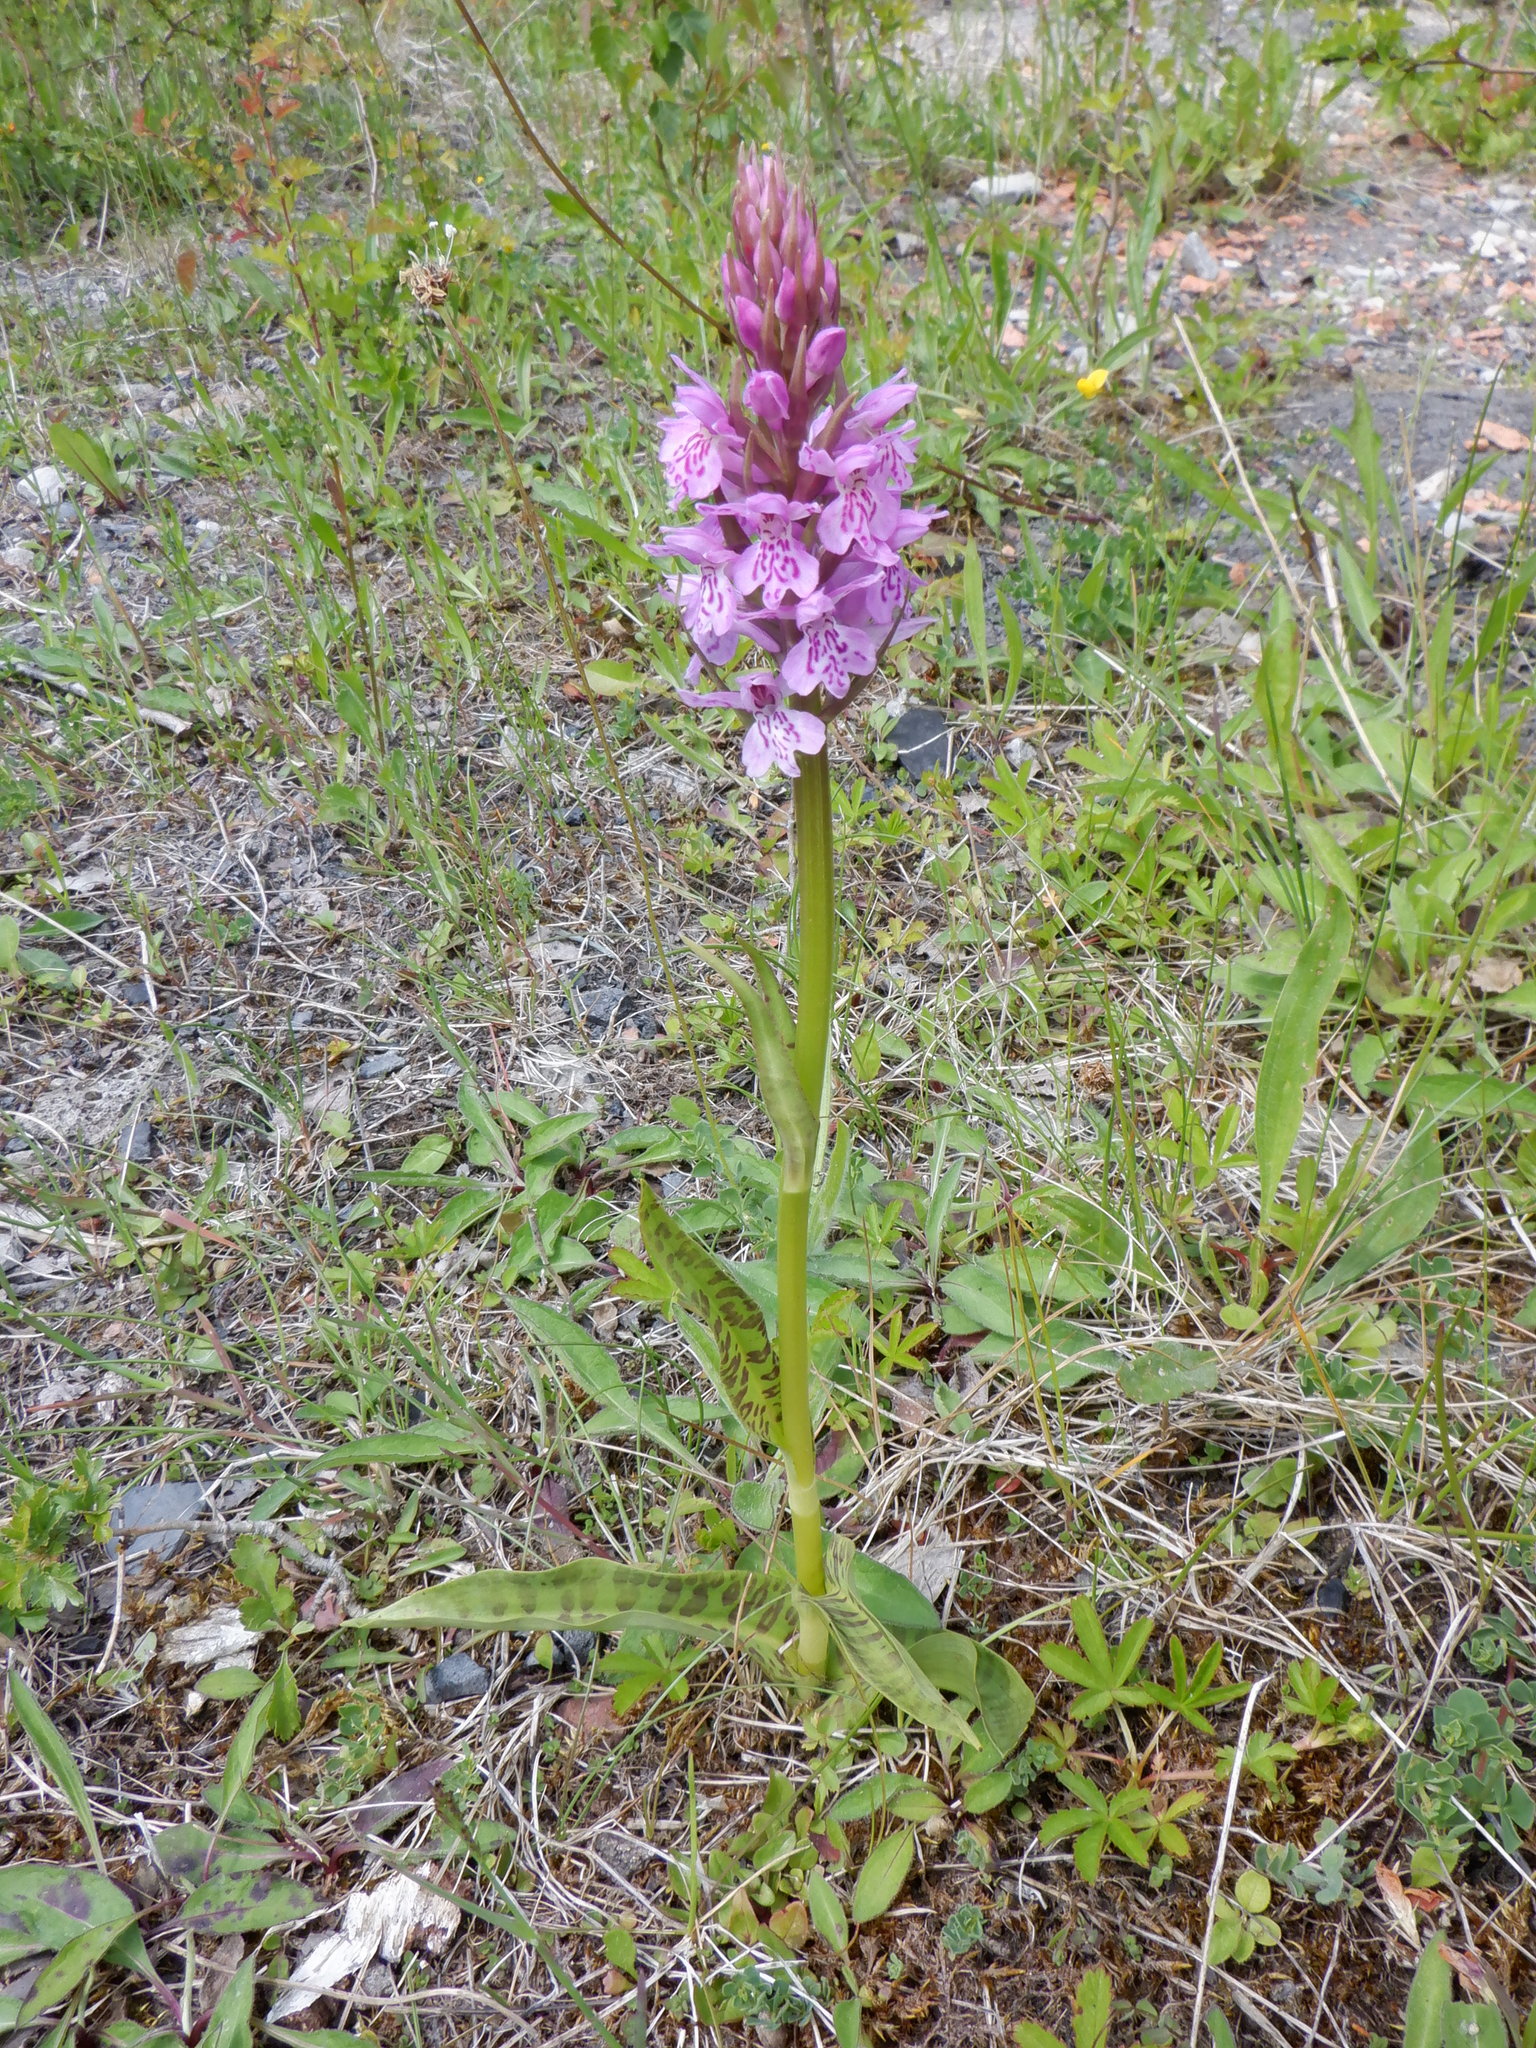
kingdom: Plantae
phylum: Tracheophyta
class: Liliopsida
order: Asparagales
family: Orchidaceae
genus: Dactylorhiza
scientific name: Dactylorhiza maculata
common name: Heath spotted-orchid
